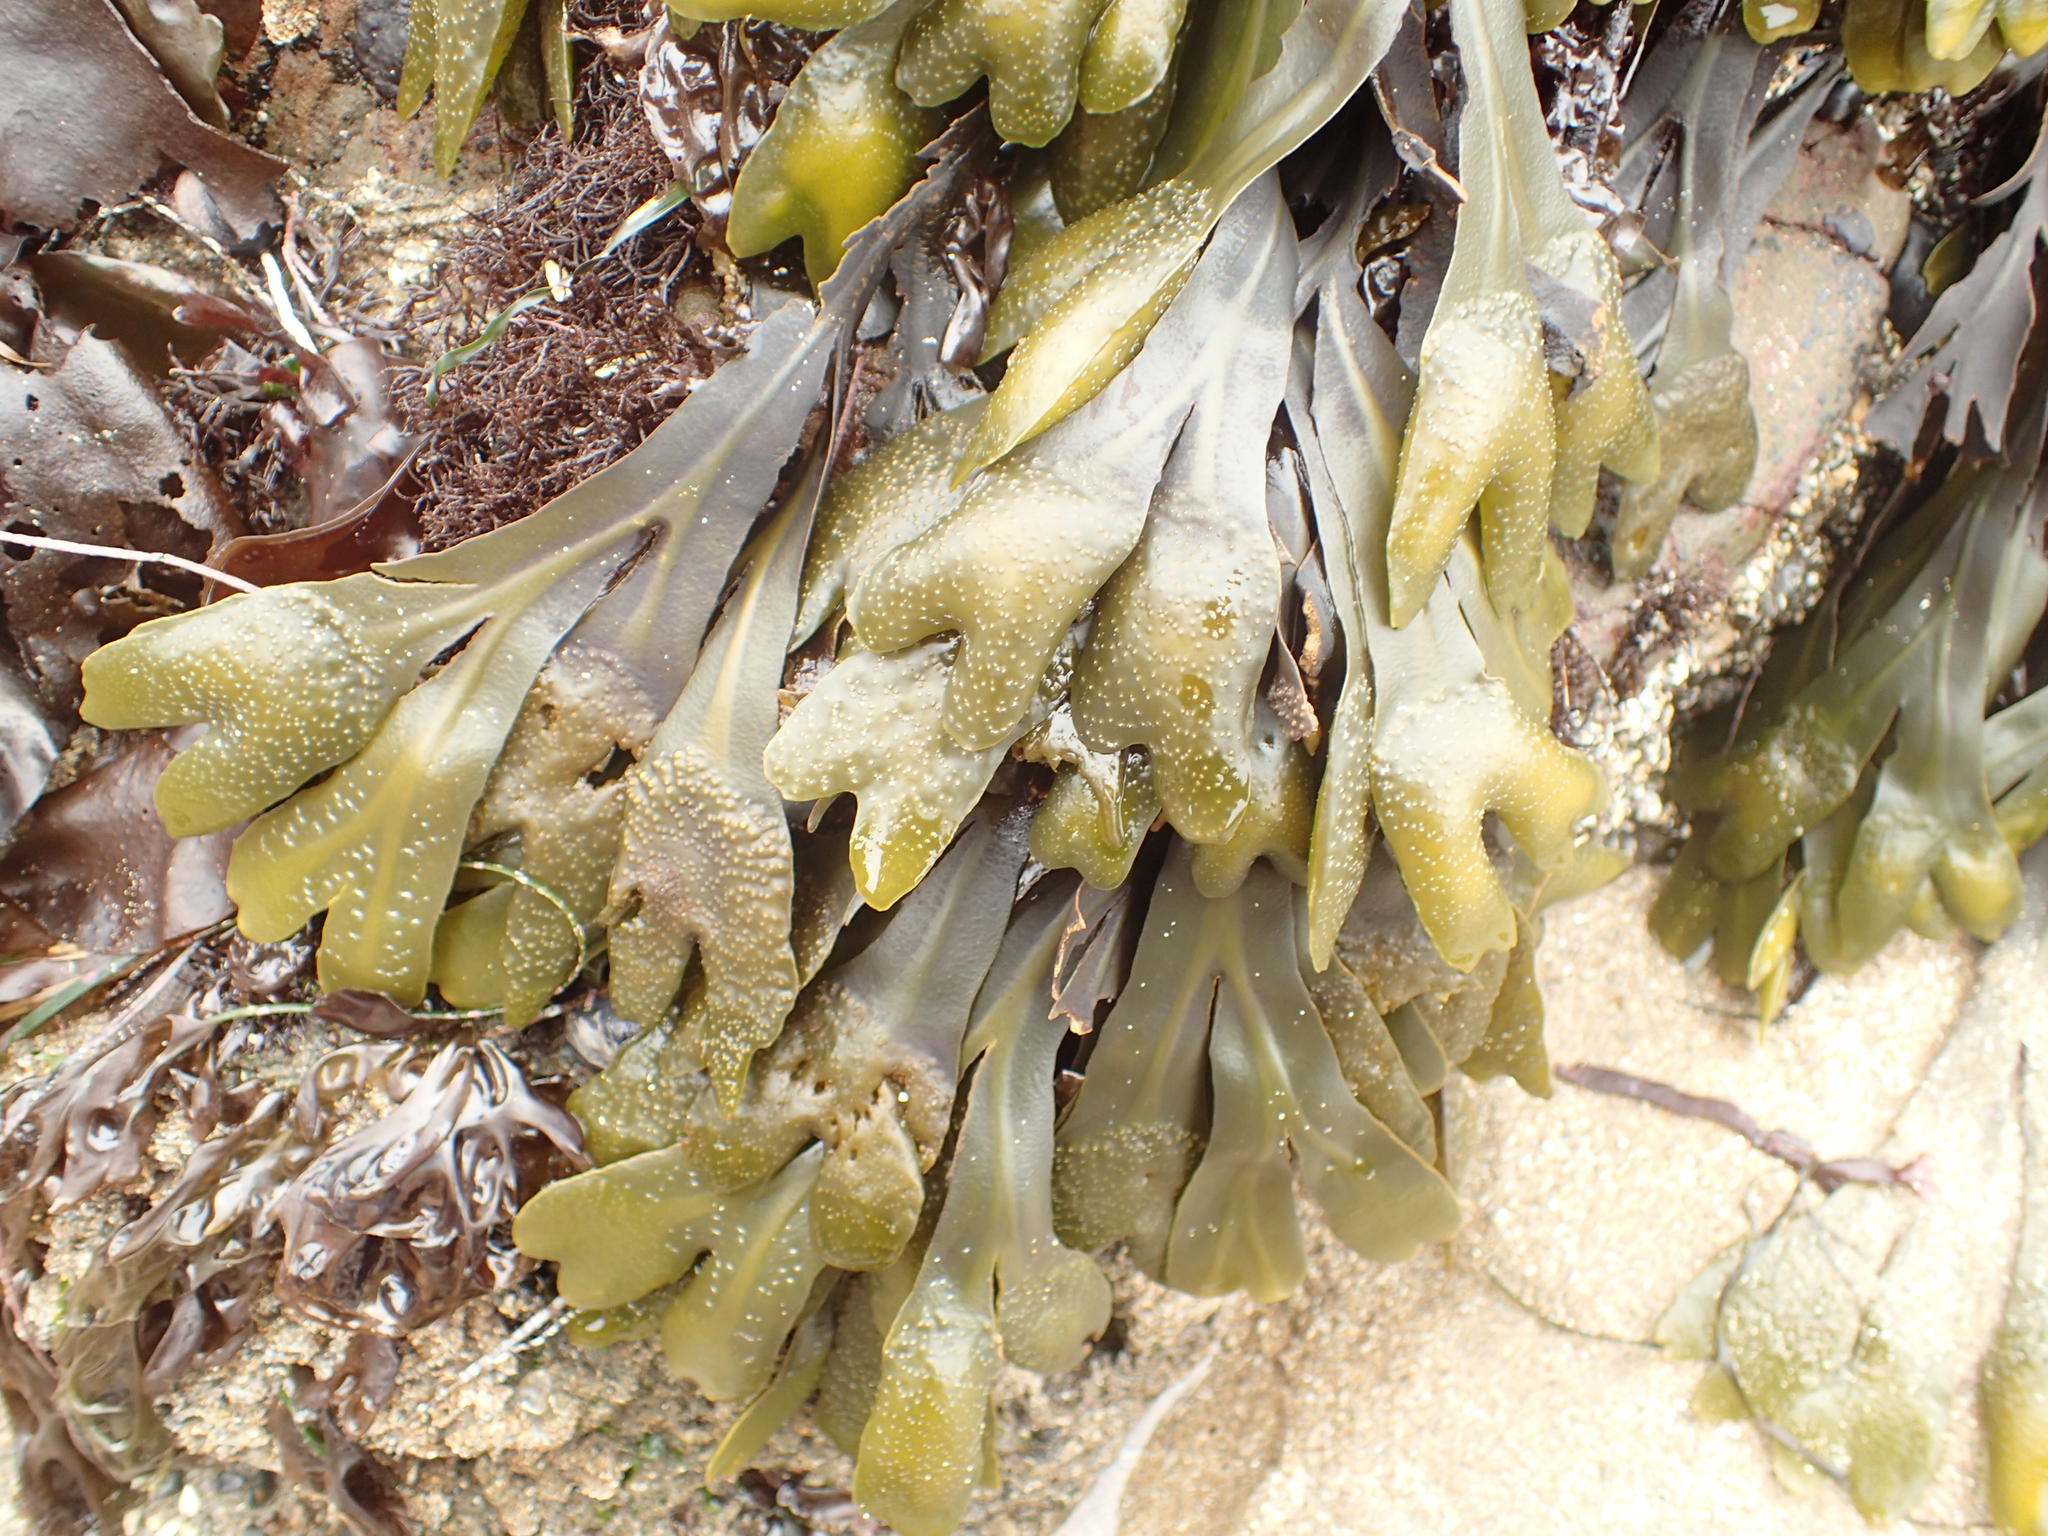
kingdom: Chromista
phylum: Ochrophyta
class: Phaeophyceae
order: Fucales
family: Fucaceae
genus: Fucus
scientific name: Fucus distichus
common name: Rockweed
